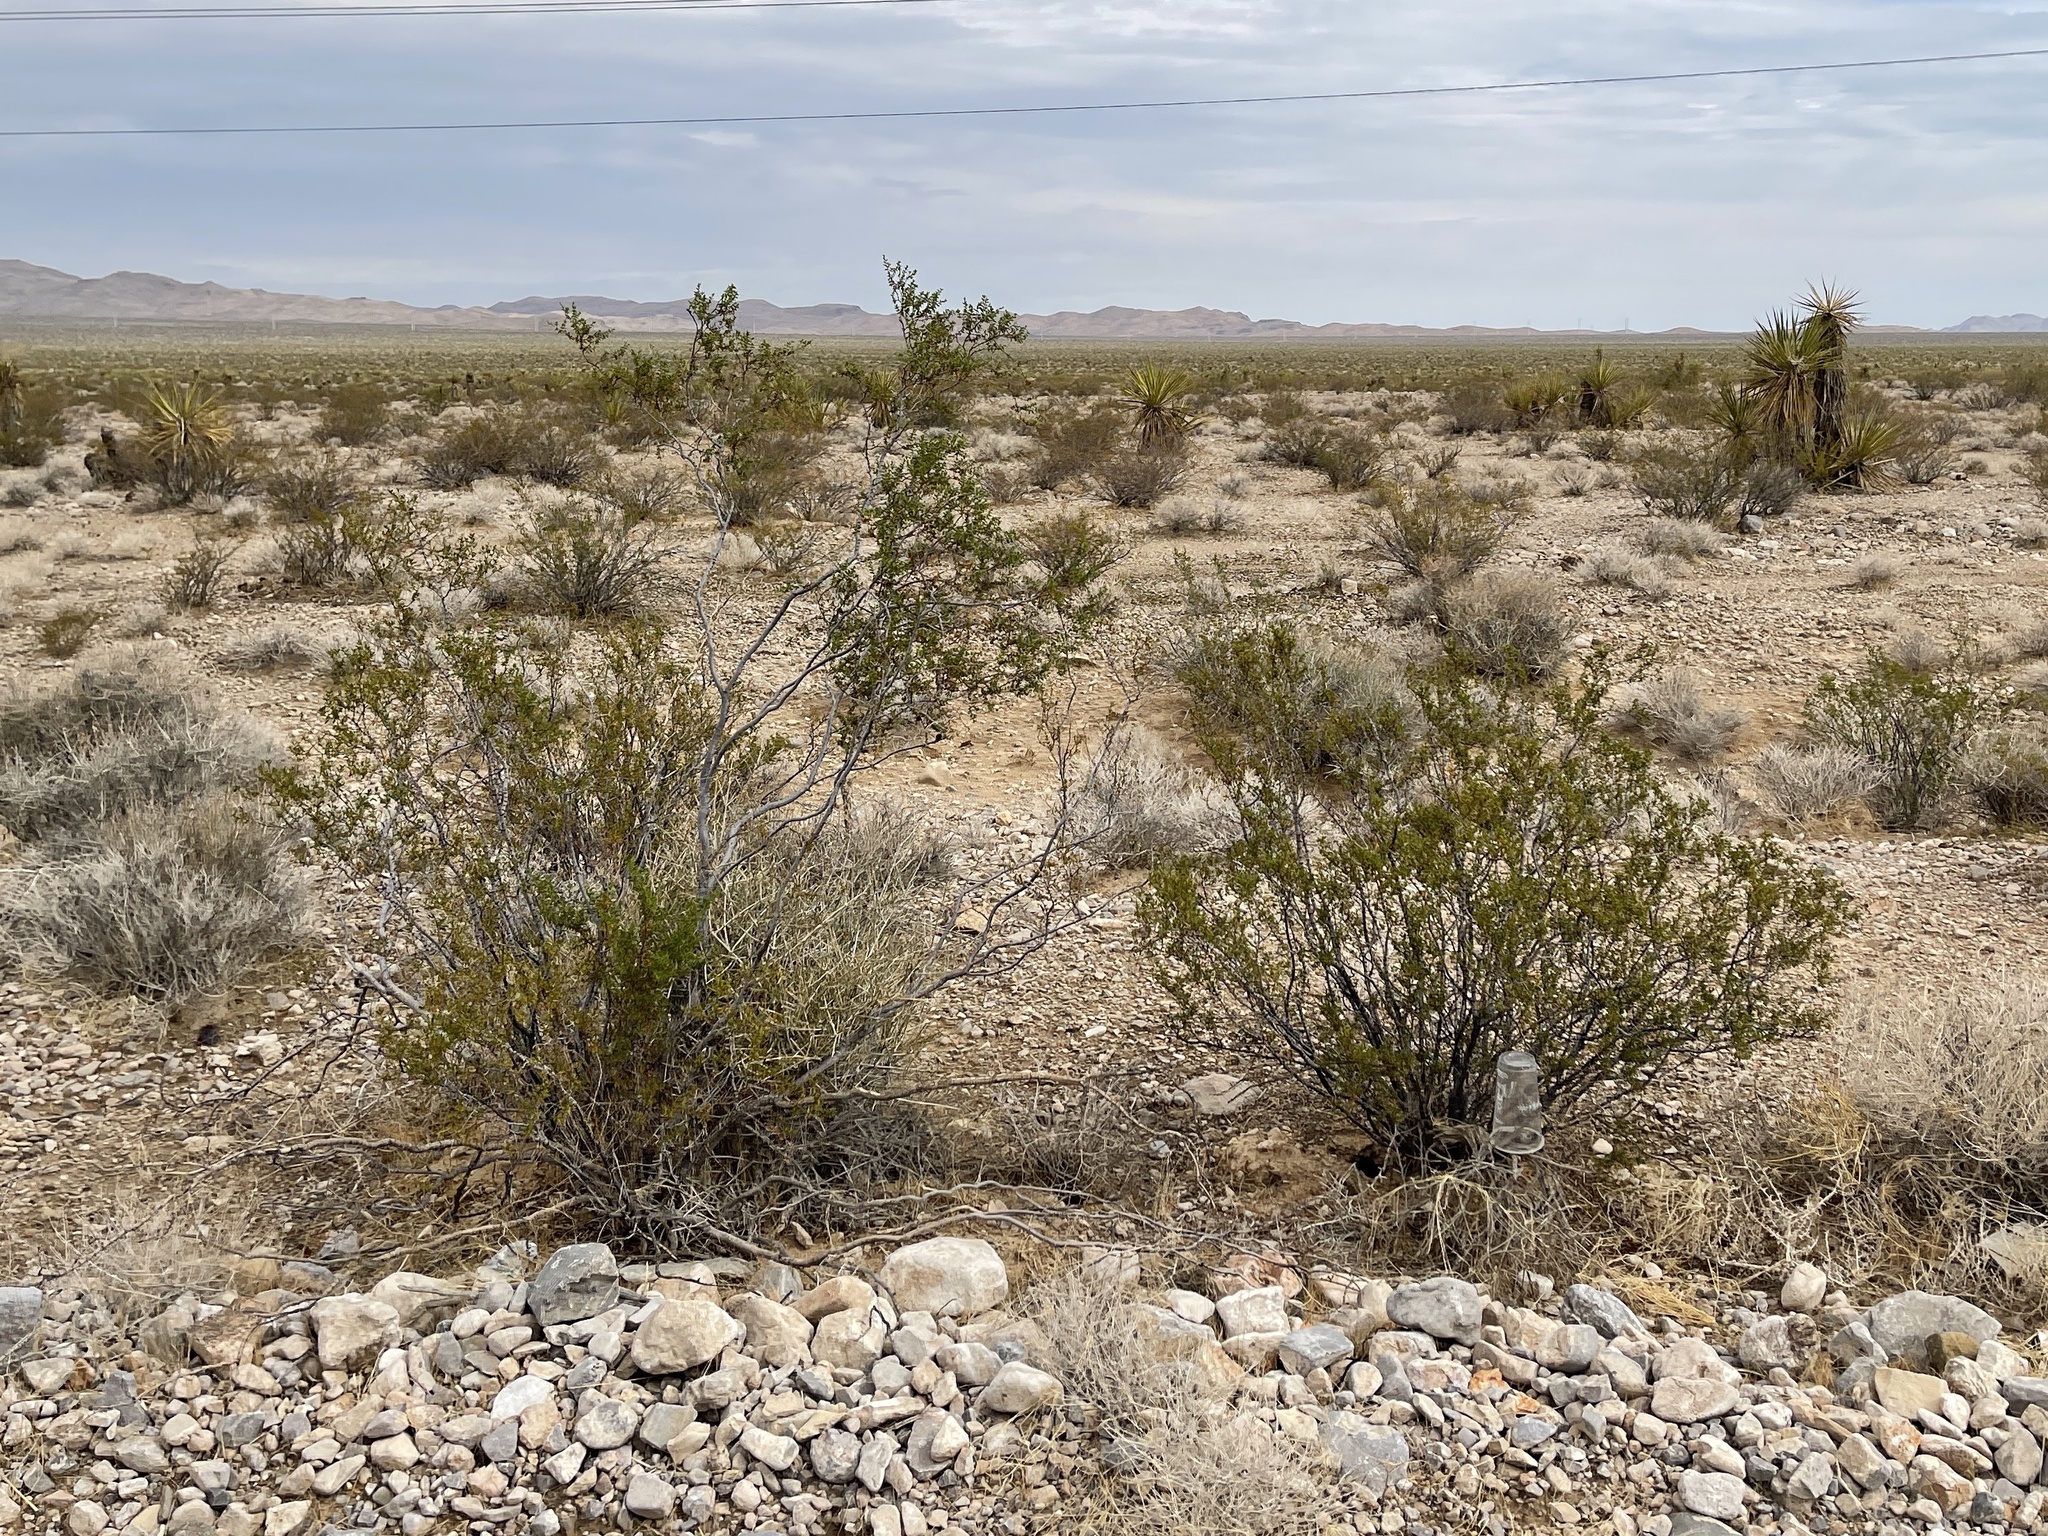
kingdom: Plantae
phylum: Tracheophyta
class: Magnoliopsida
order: Zygophyllales
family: Zygophyllaceae
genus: Larrea
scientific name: Larrea tridentata
